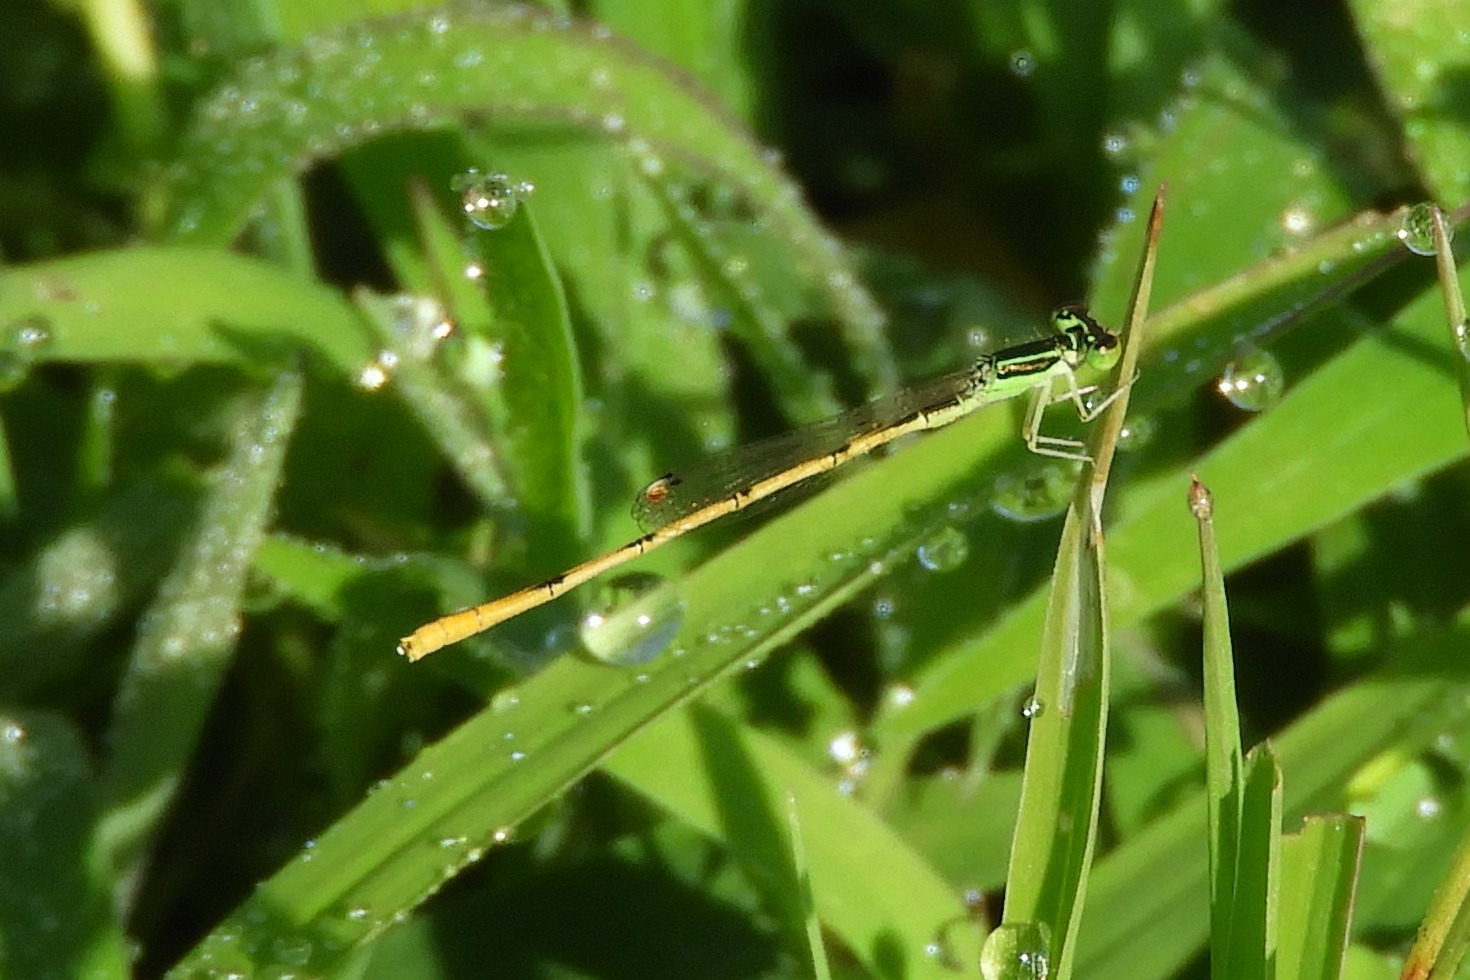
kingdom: Animalia
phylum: Arthropoda
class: Insecta
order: Odonata
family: Coenagrionidae
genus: Ischnura
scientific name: Ischnura hastata
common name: Citrine forktail
